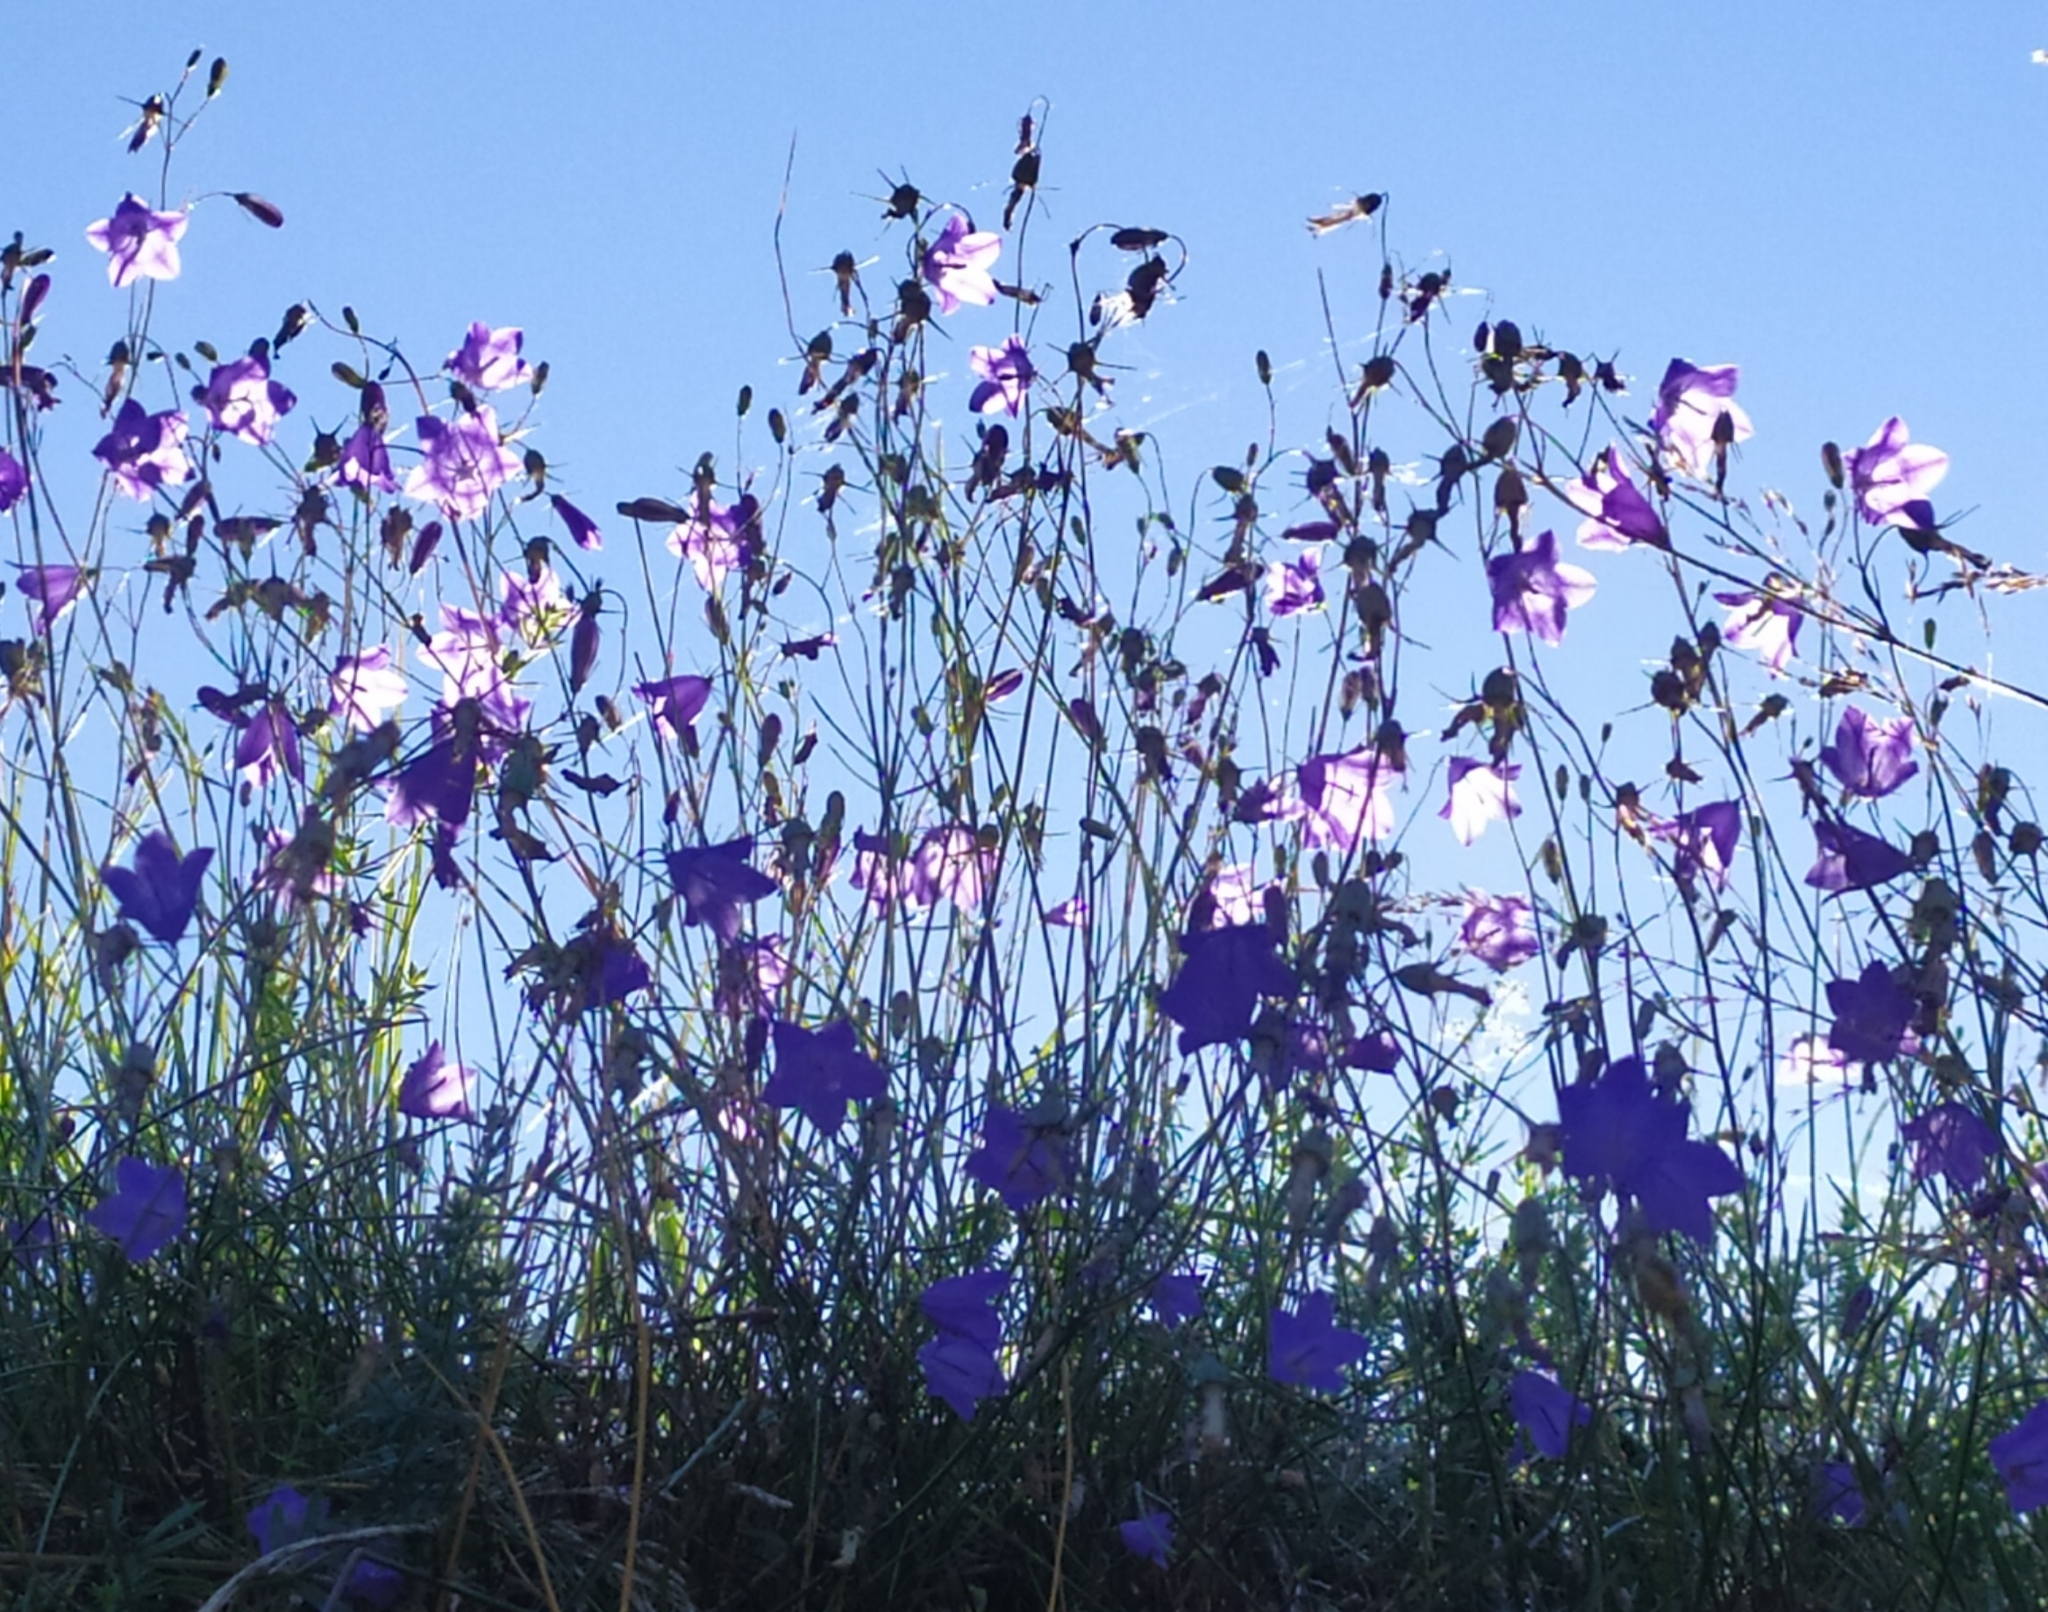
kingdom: Plantae
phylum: Tracheophyta
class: Magnoliopsida
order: Asterales
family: Campanulaceae
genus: Campanula
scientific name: Campanula rotundifolia
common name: Harebell
